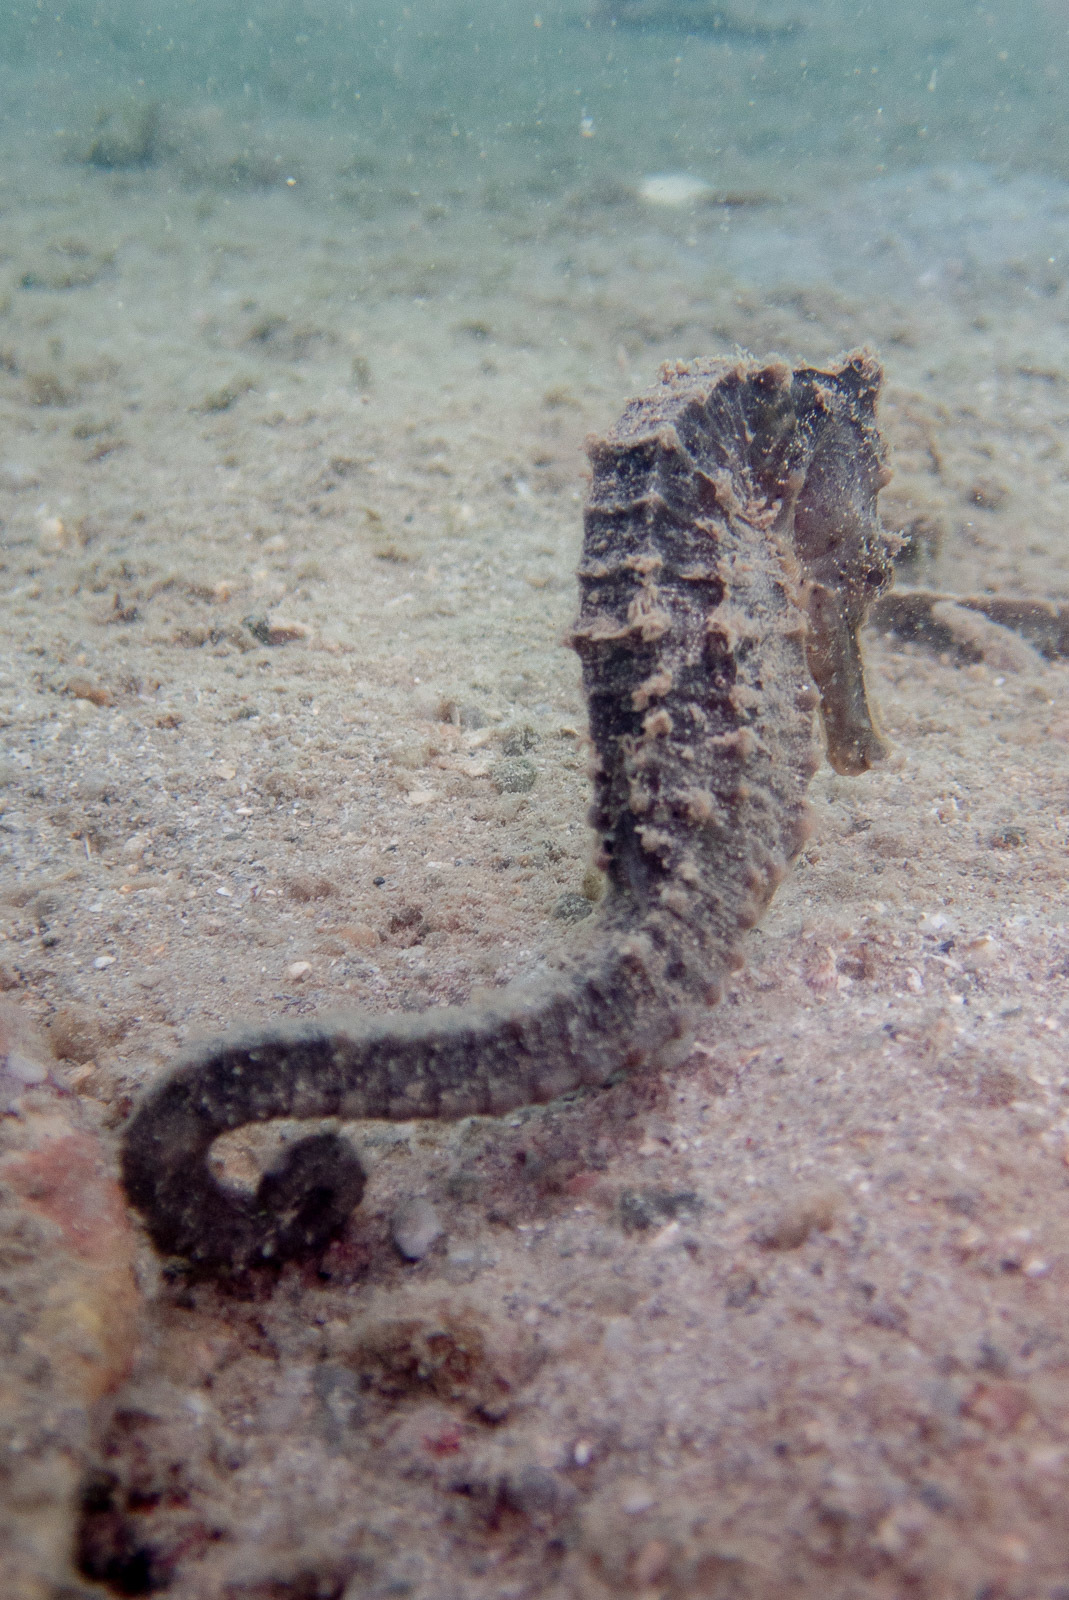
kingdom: Animalia
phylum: Chordata
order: Syngnathiformes
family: Syngnathidae
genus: Hippocampus
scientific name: Hippocampus kuda
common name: Spotted seahorse
